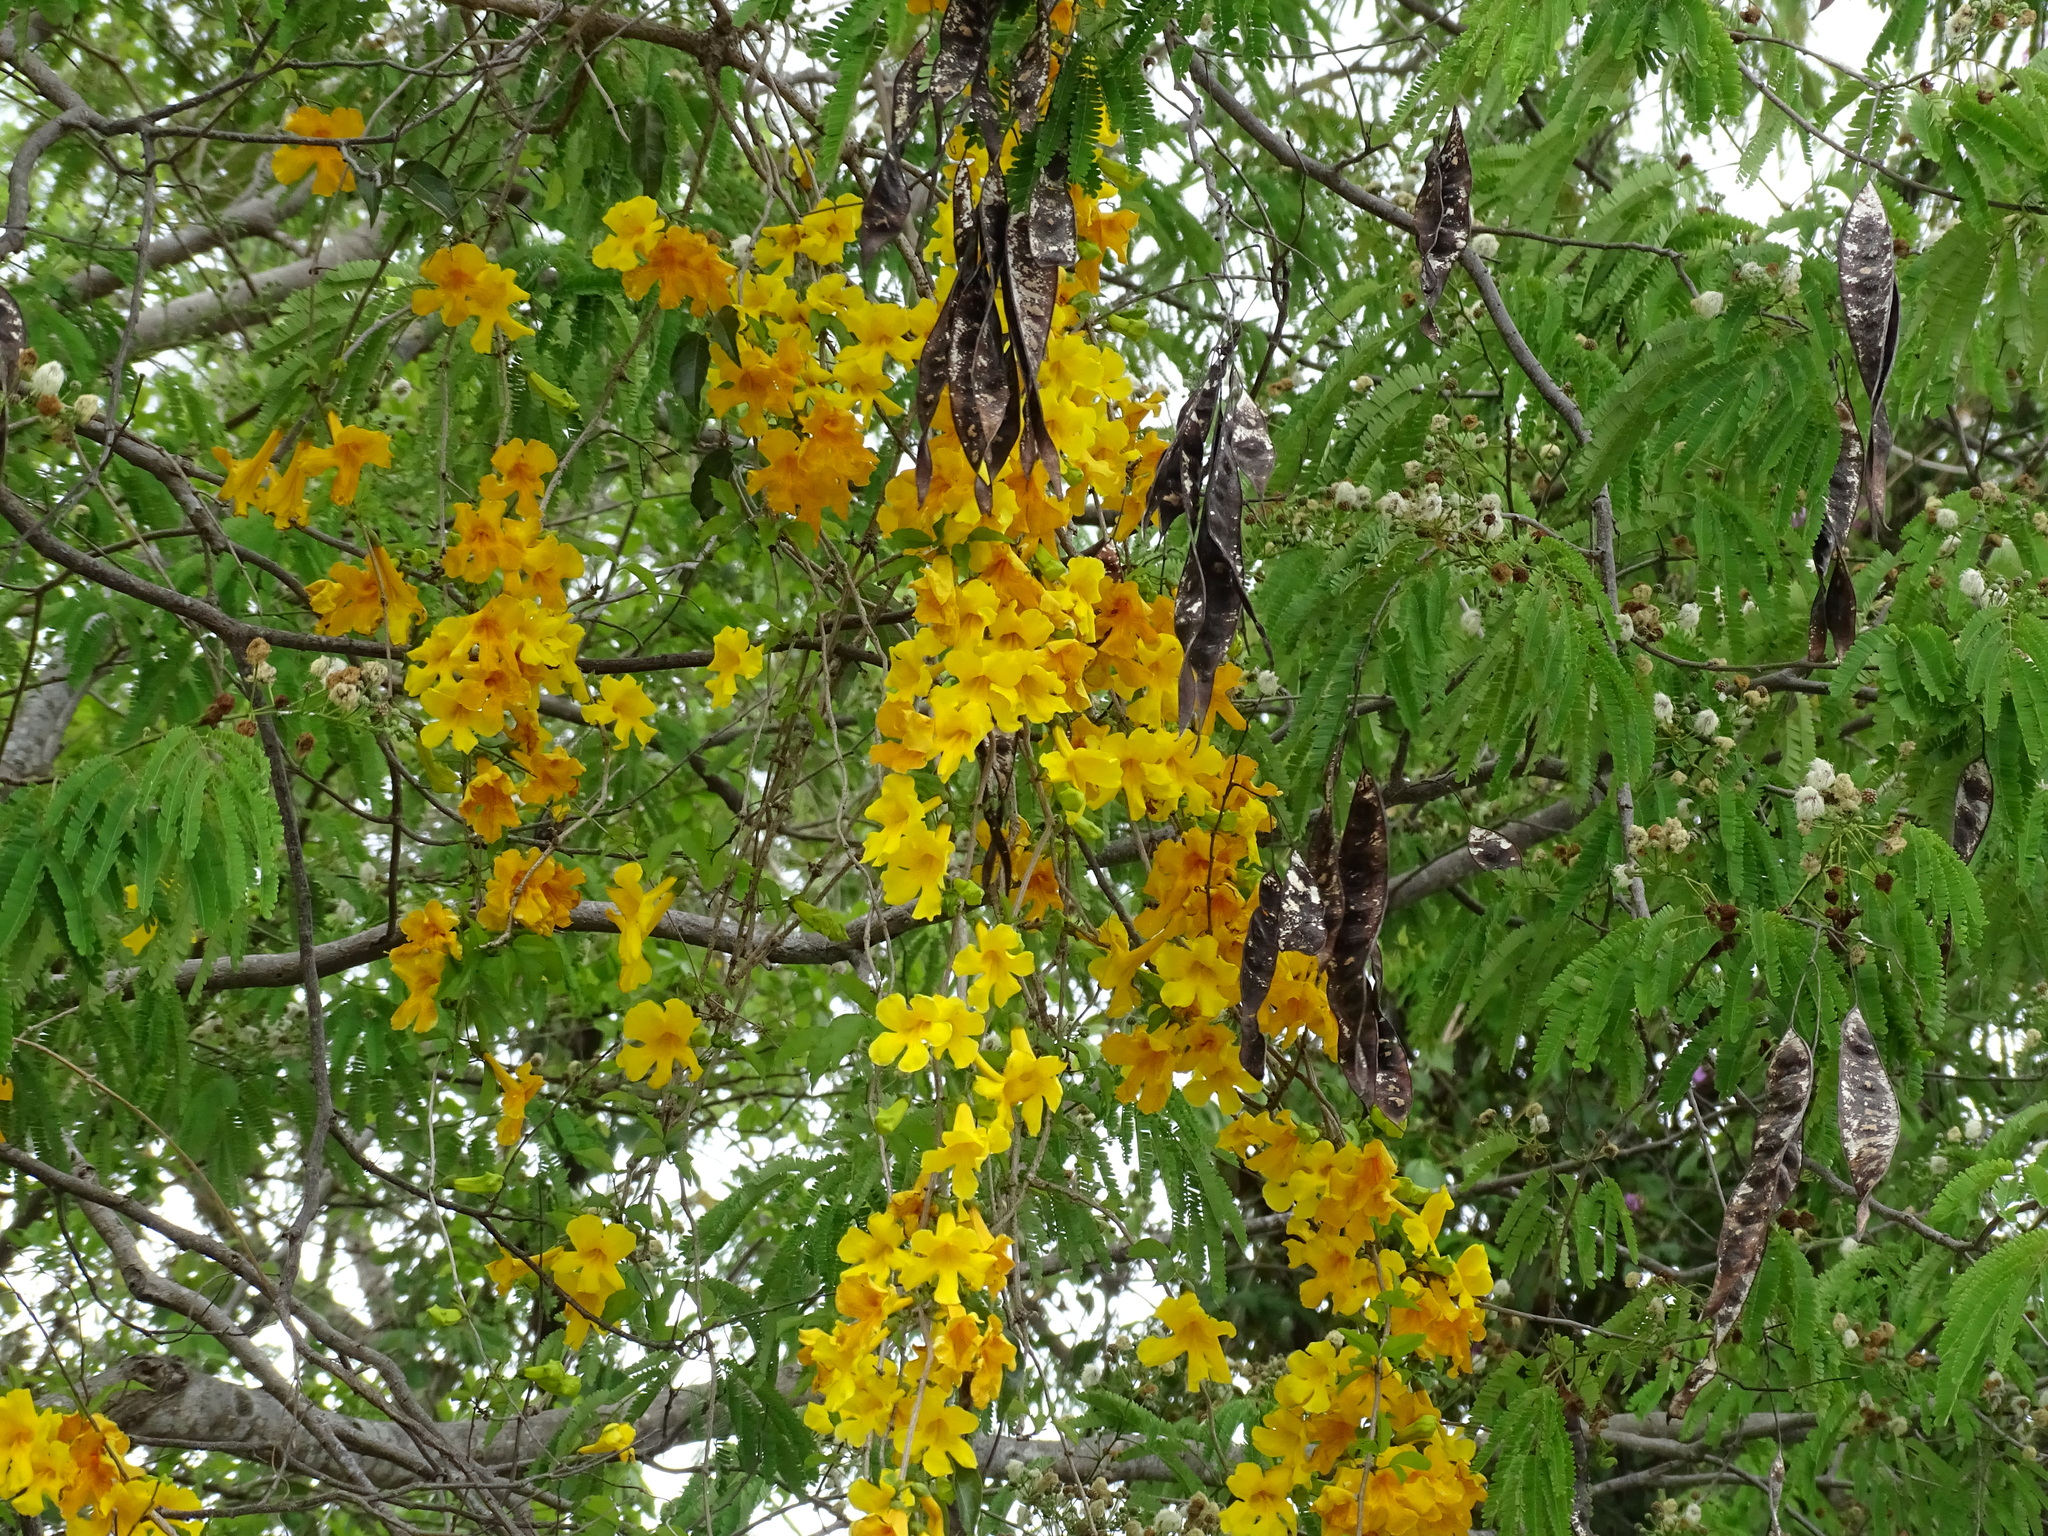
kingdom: Plantae
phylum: Tracheophyta
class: Magnoliopsida
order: Lamiales
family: Bignoniaceae
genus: Dolichandra
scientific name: Dolichandra unguis-cati
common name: Catclaw vine
